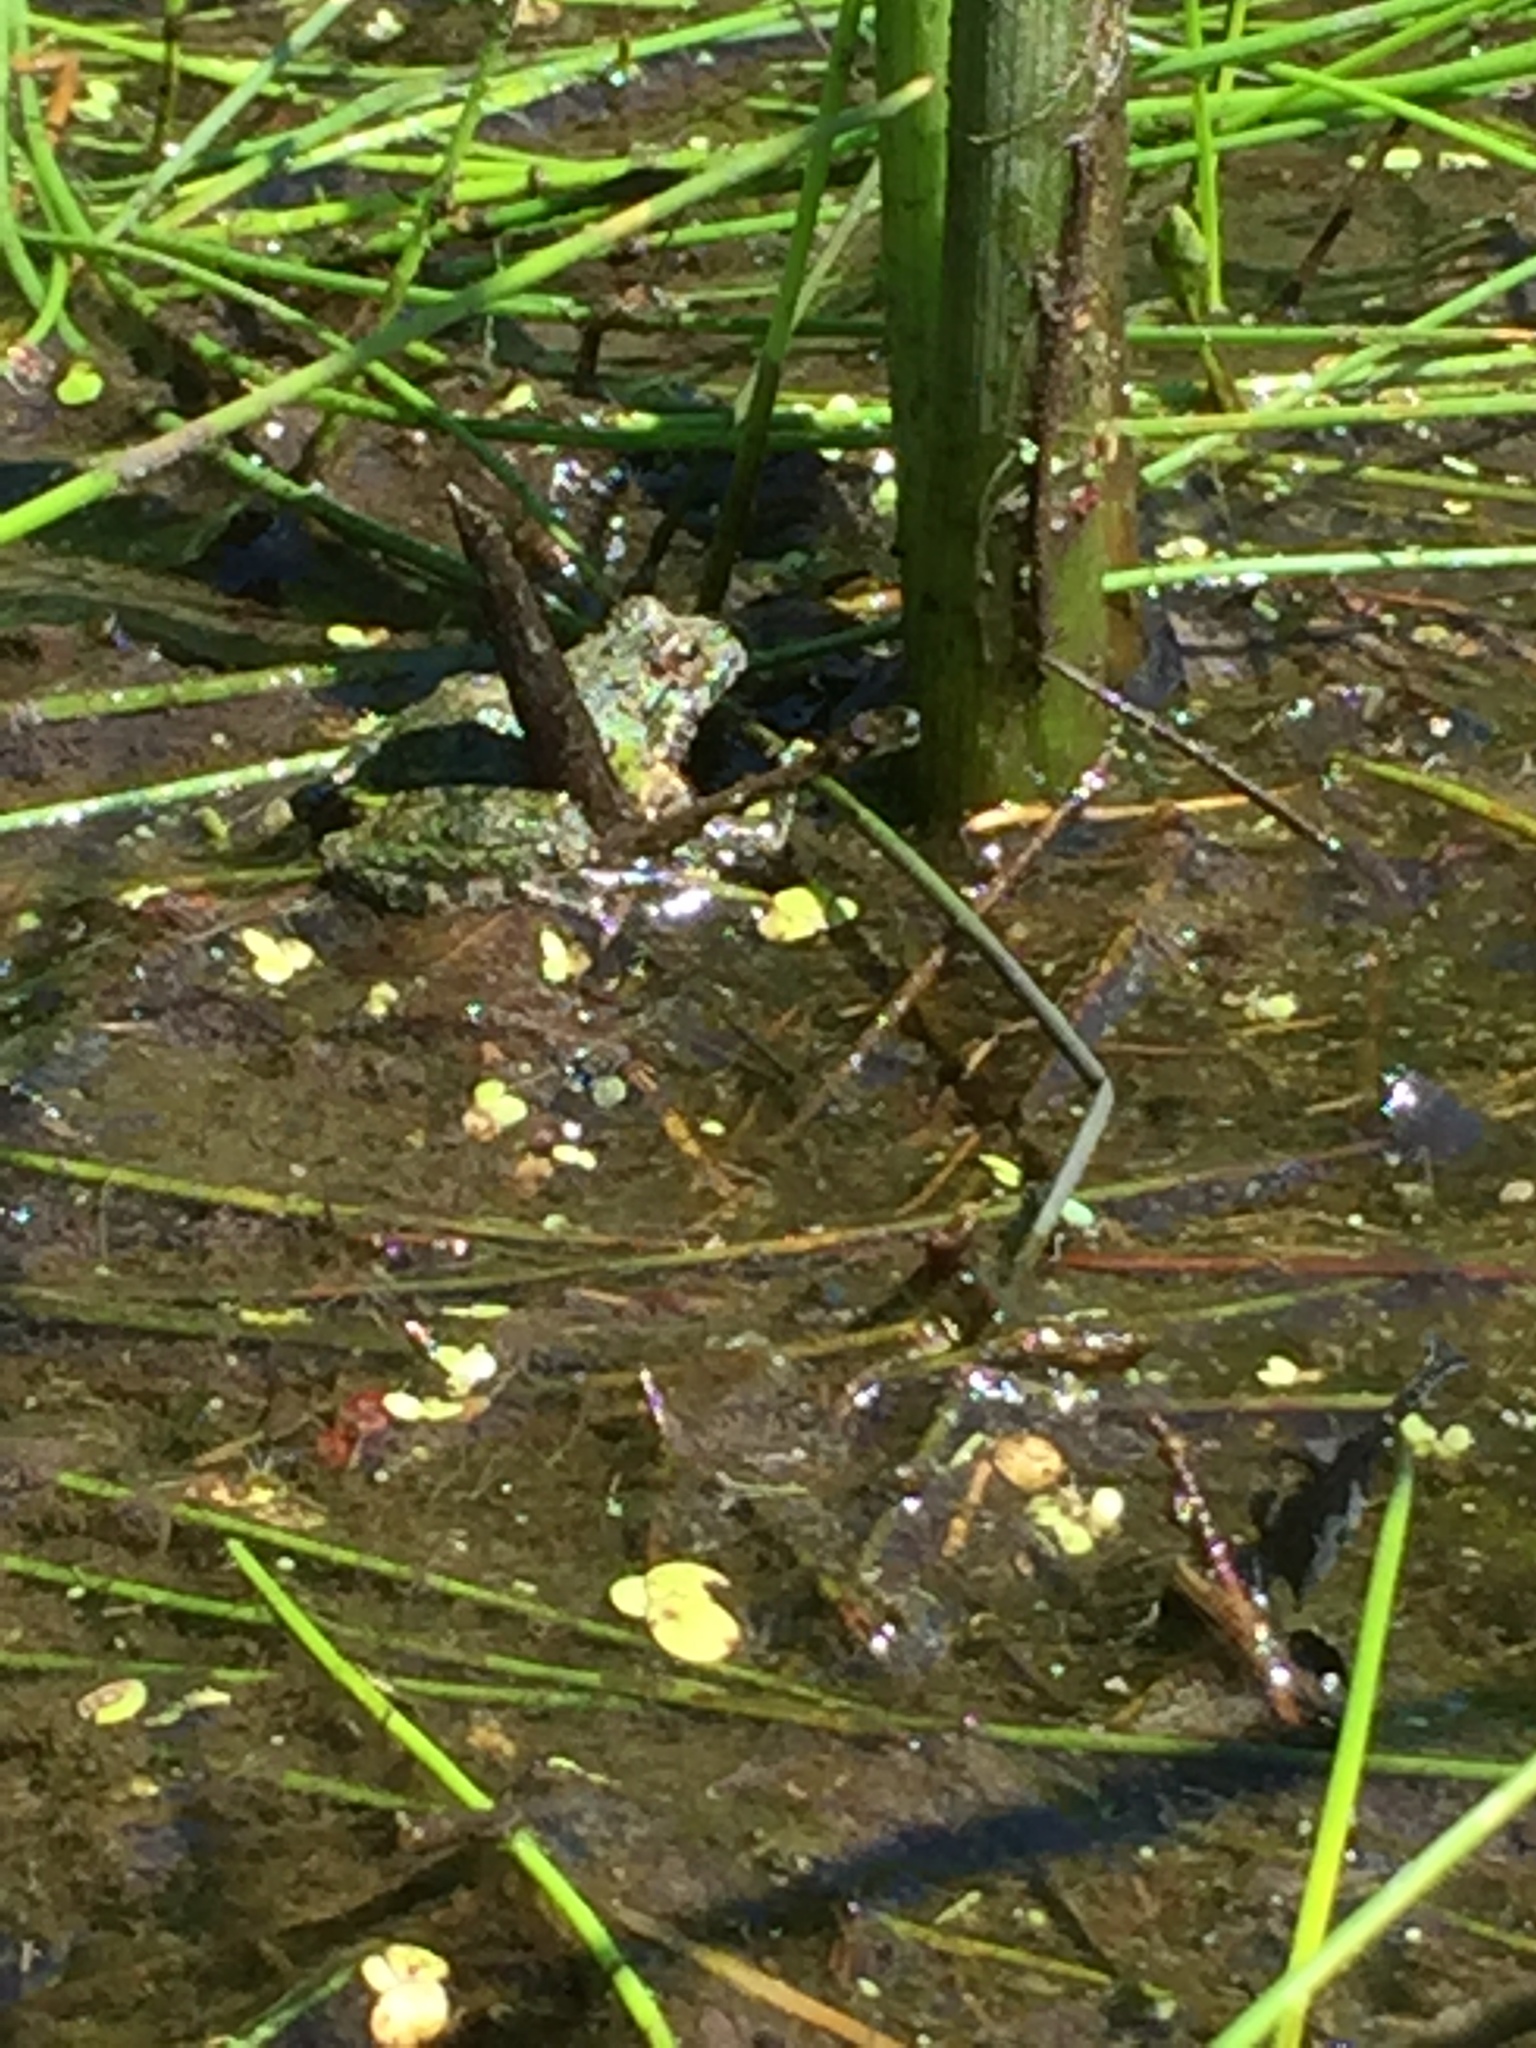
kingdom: Animalia
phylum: Chordata
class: Amphibia
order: Anura
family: Hylidae
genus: Acris
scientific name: Acris blanchardi
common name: Blanchard's cricket frog
